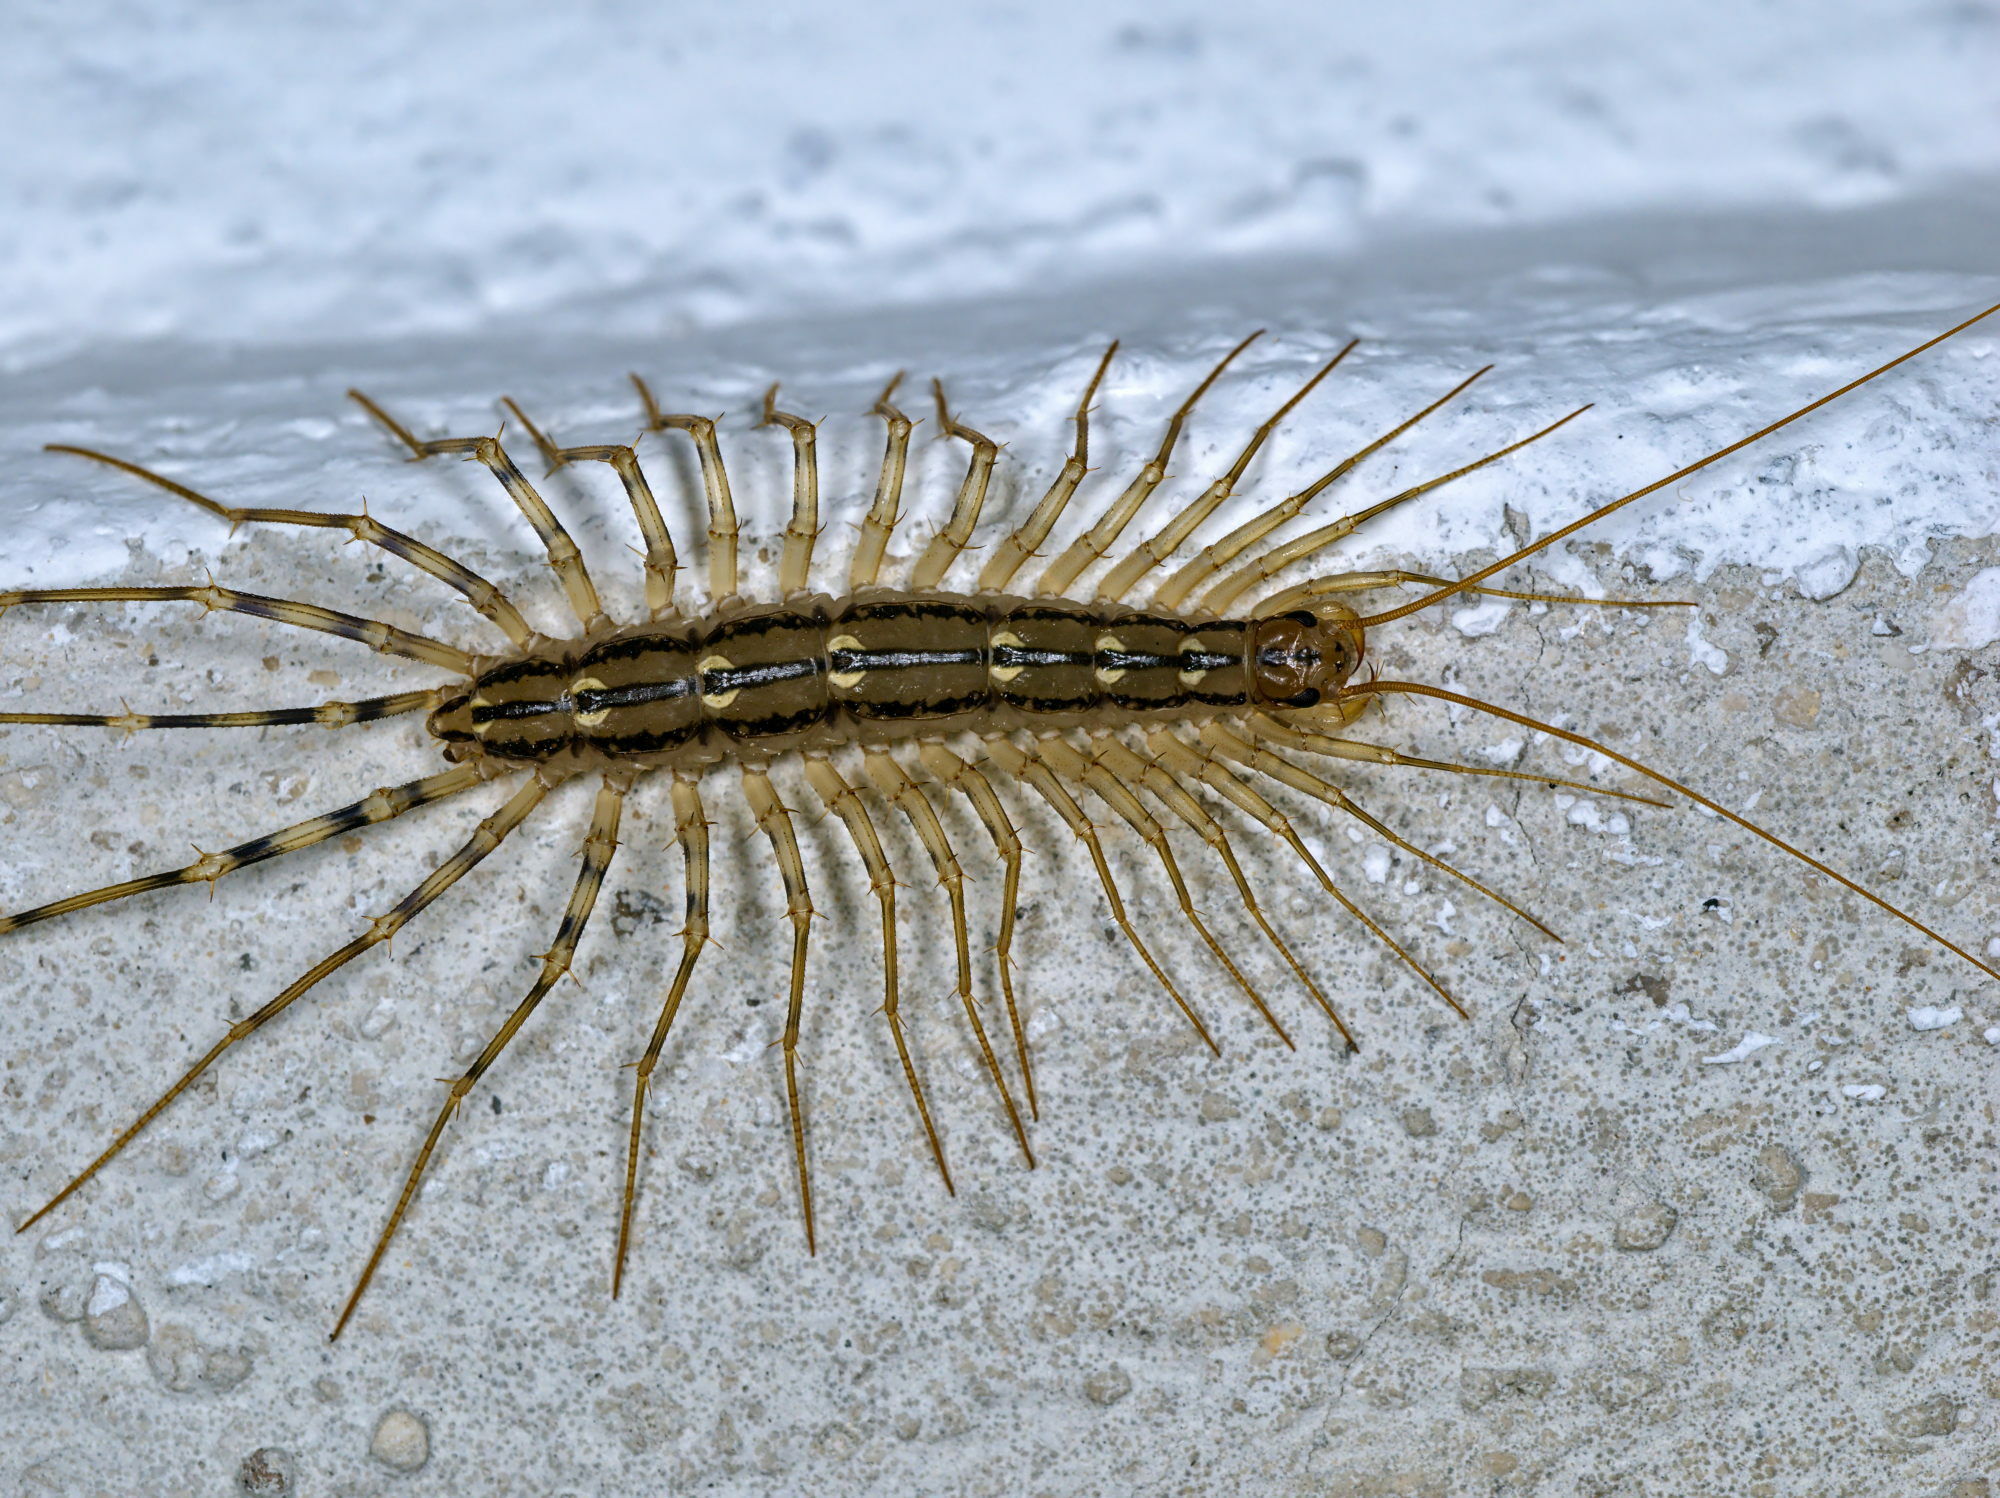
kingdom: Animalia
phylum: Arthropoda
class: Chilopoda
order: Scutigeromorpha
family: Scutigeridae
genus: Scutigera
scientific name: Scutigera coleoptrata
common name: House centipede
